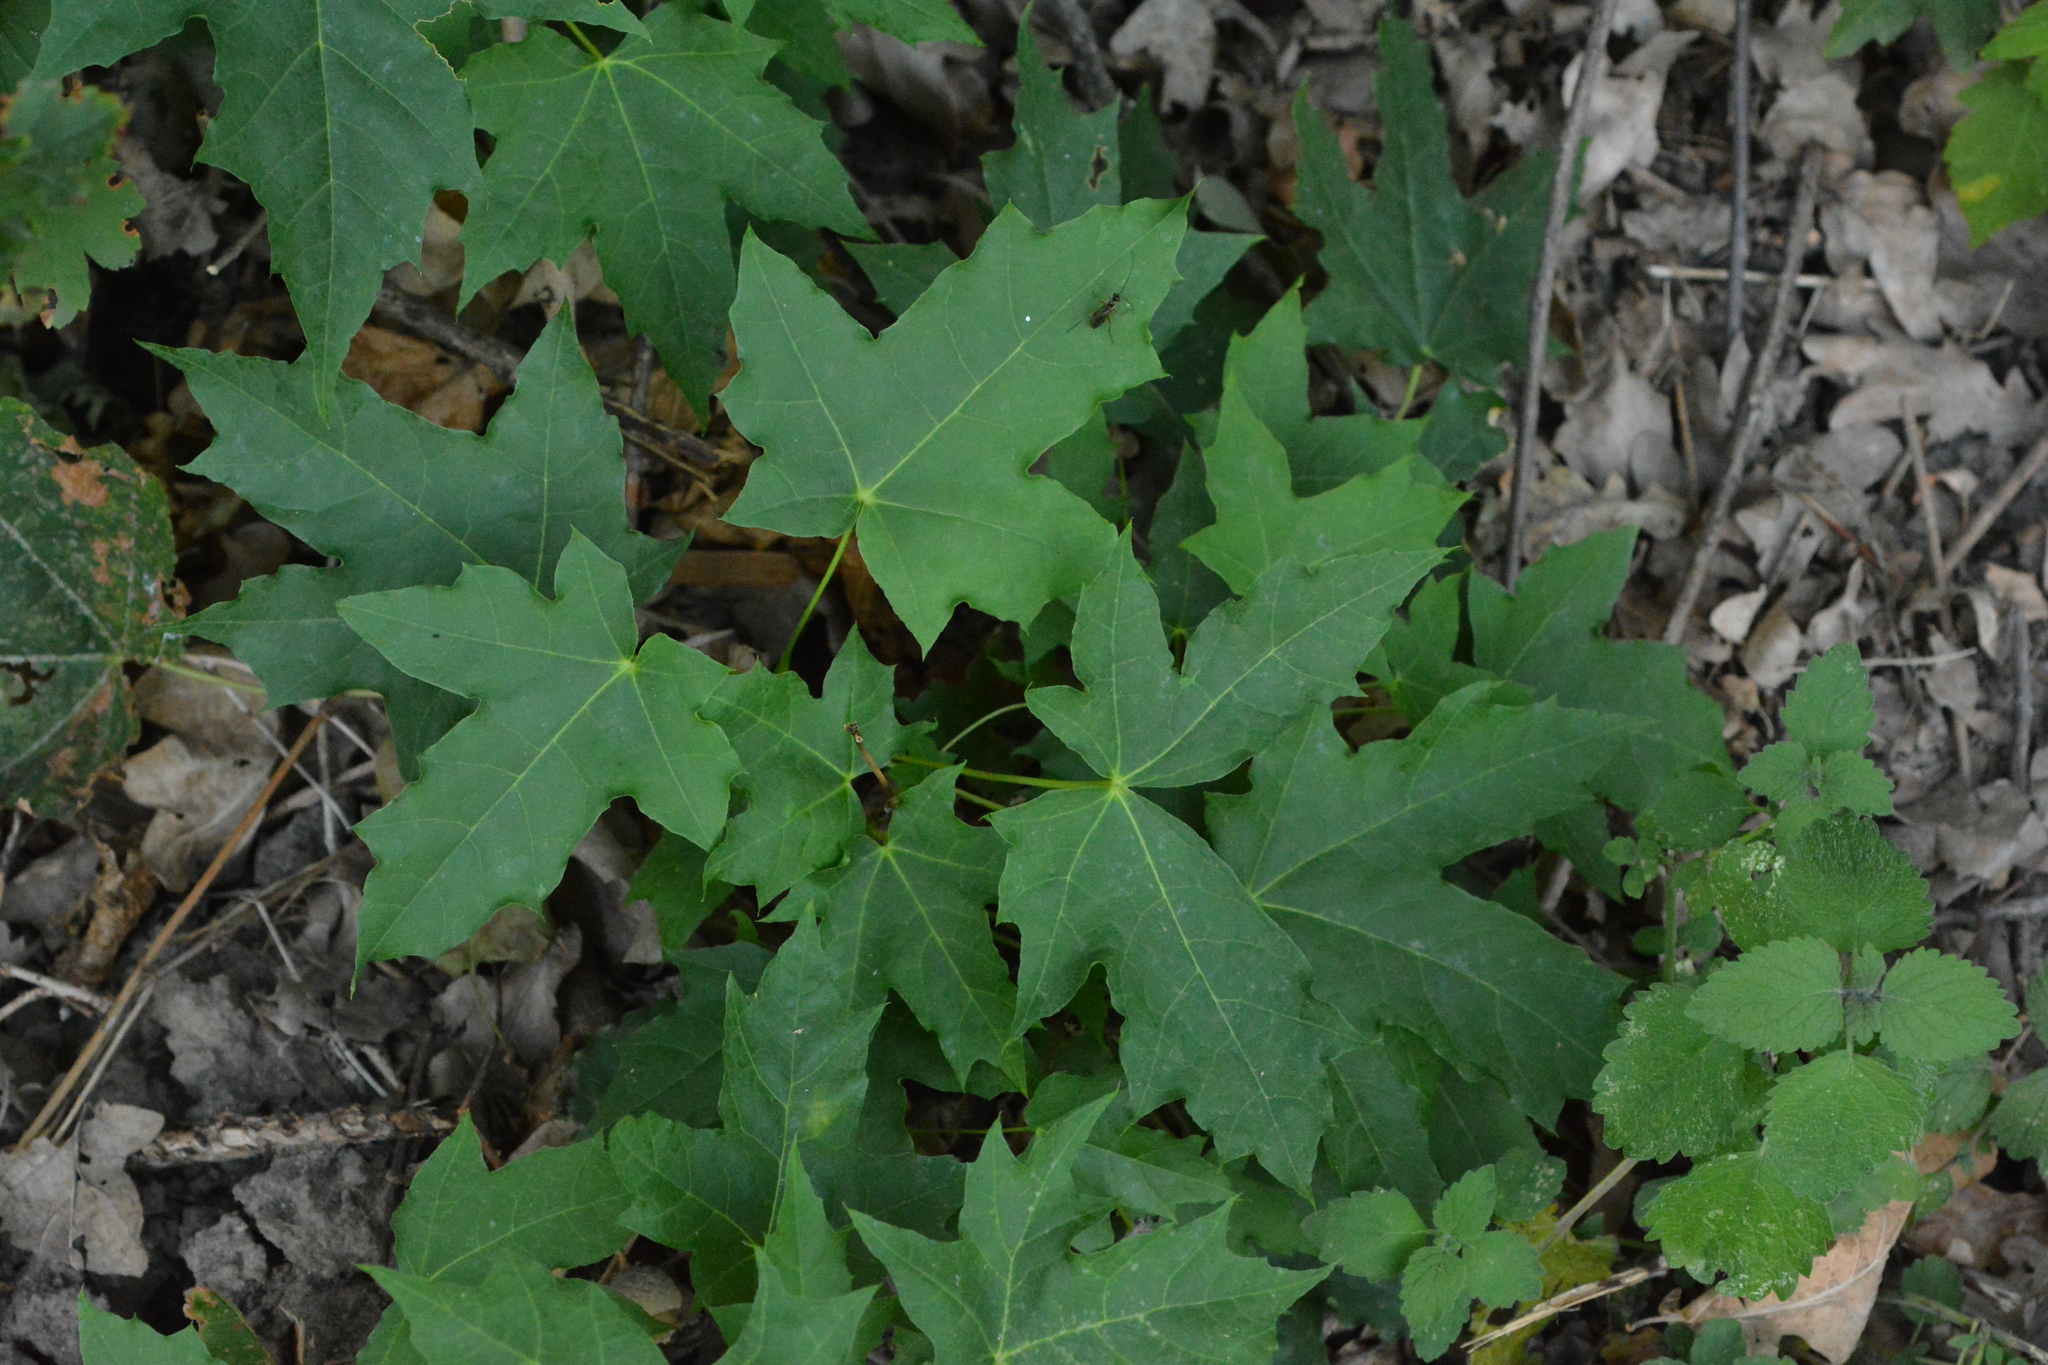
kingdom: Plantae
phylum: Tracheophyta
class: Magnoliopsida
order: Sapindales
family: Sapindaceae
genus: Acer
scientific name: Acer platanoides
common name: Norway maple
